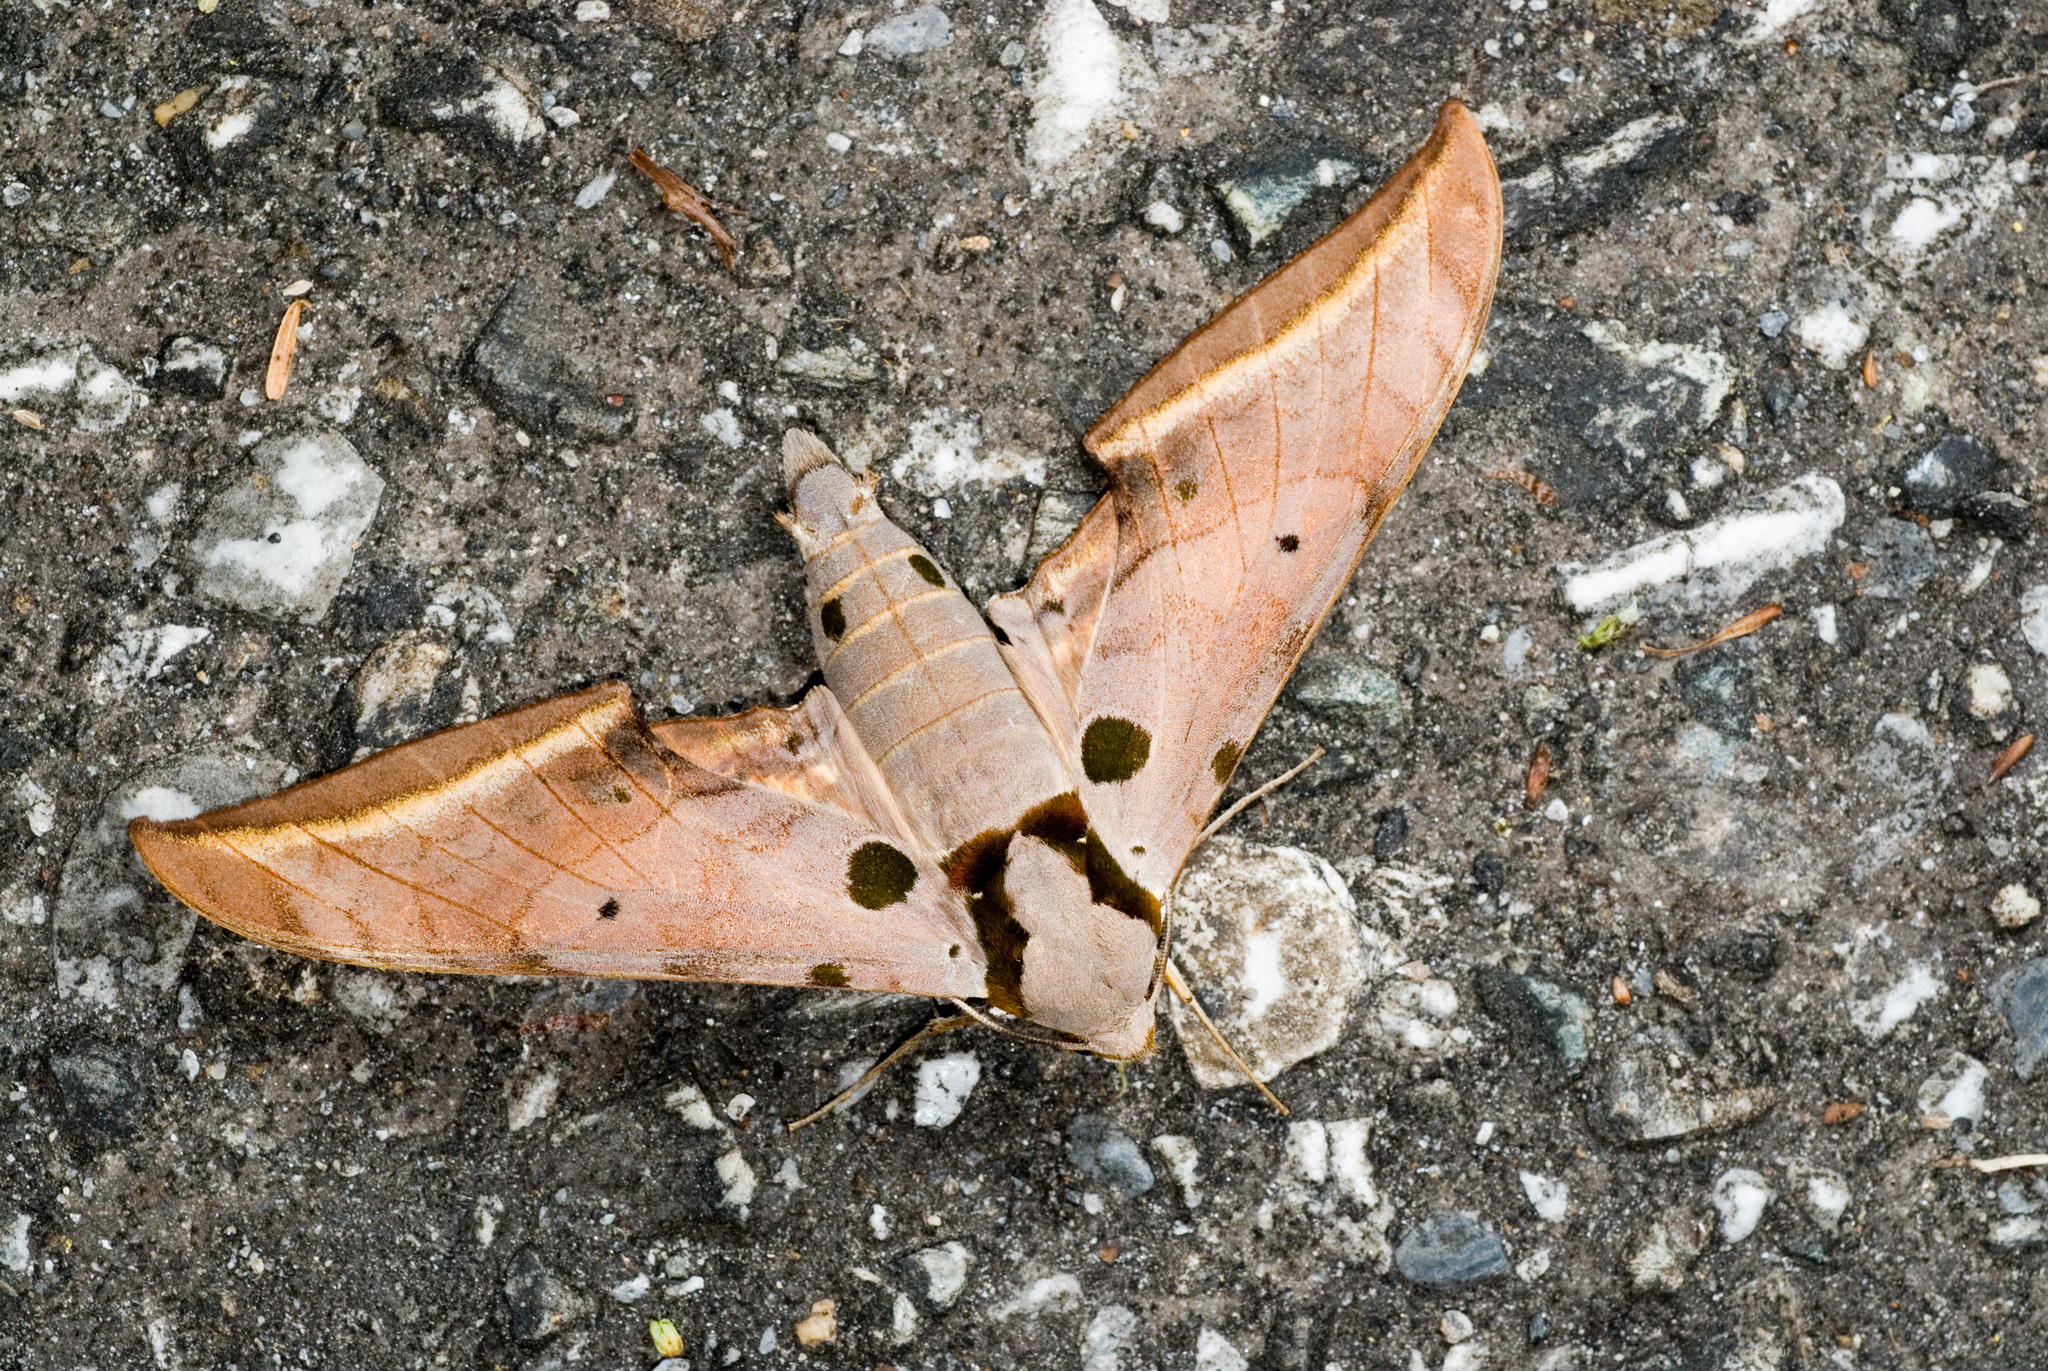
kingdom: Animalia
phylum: Arthropoda
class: Insecta
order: Lepidoptera
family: Sphingidae
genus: Ambulyx
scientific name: Ambulyx semiplacida
